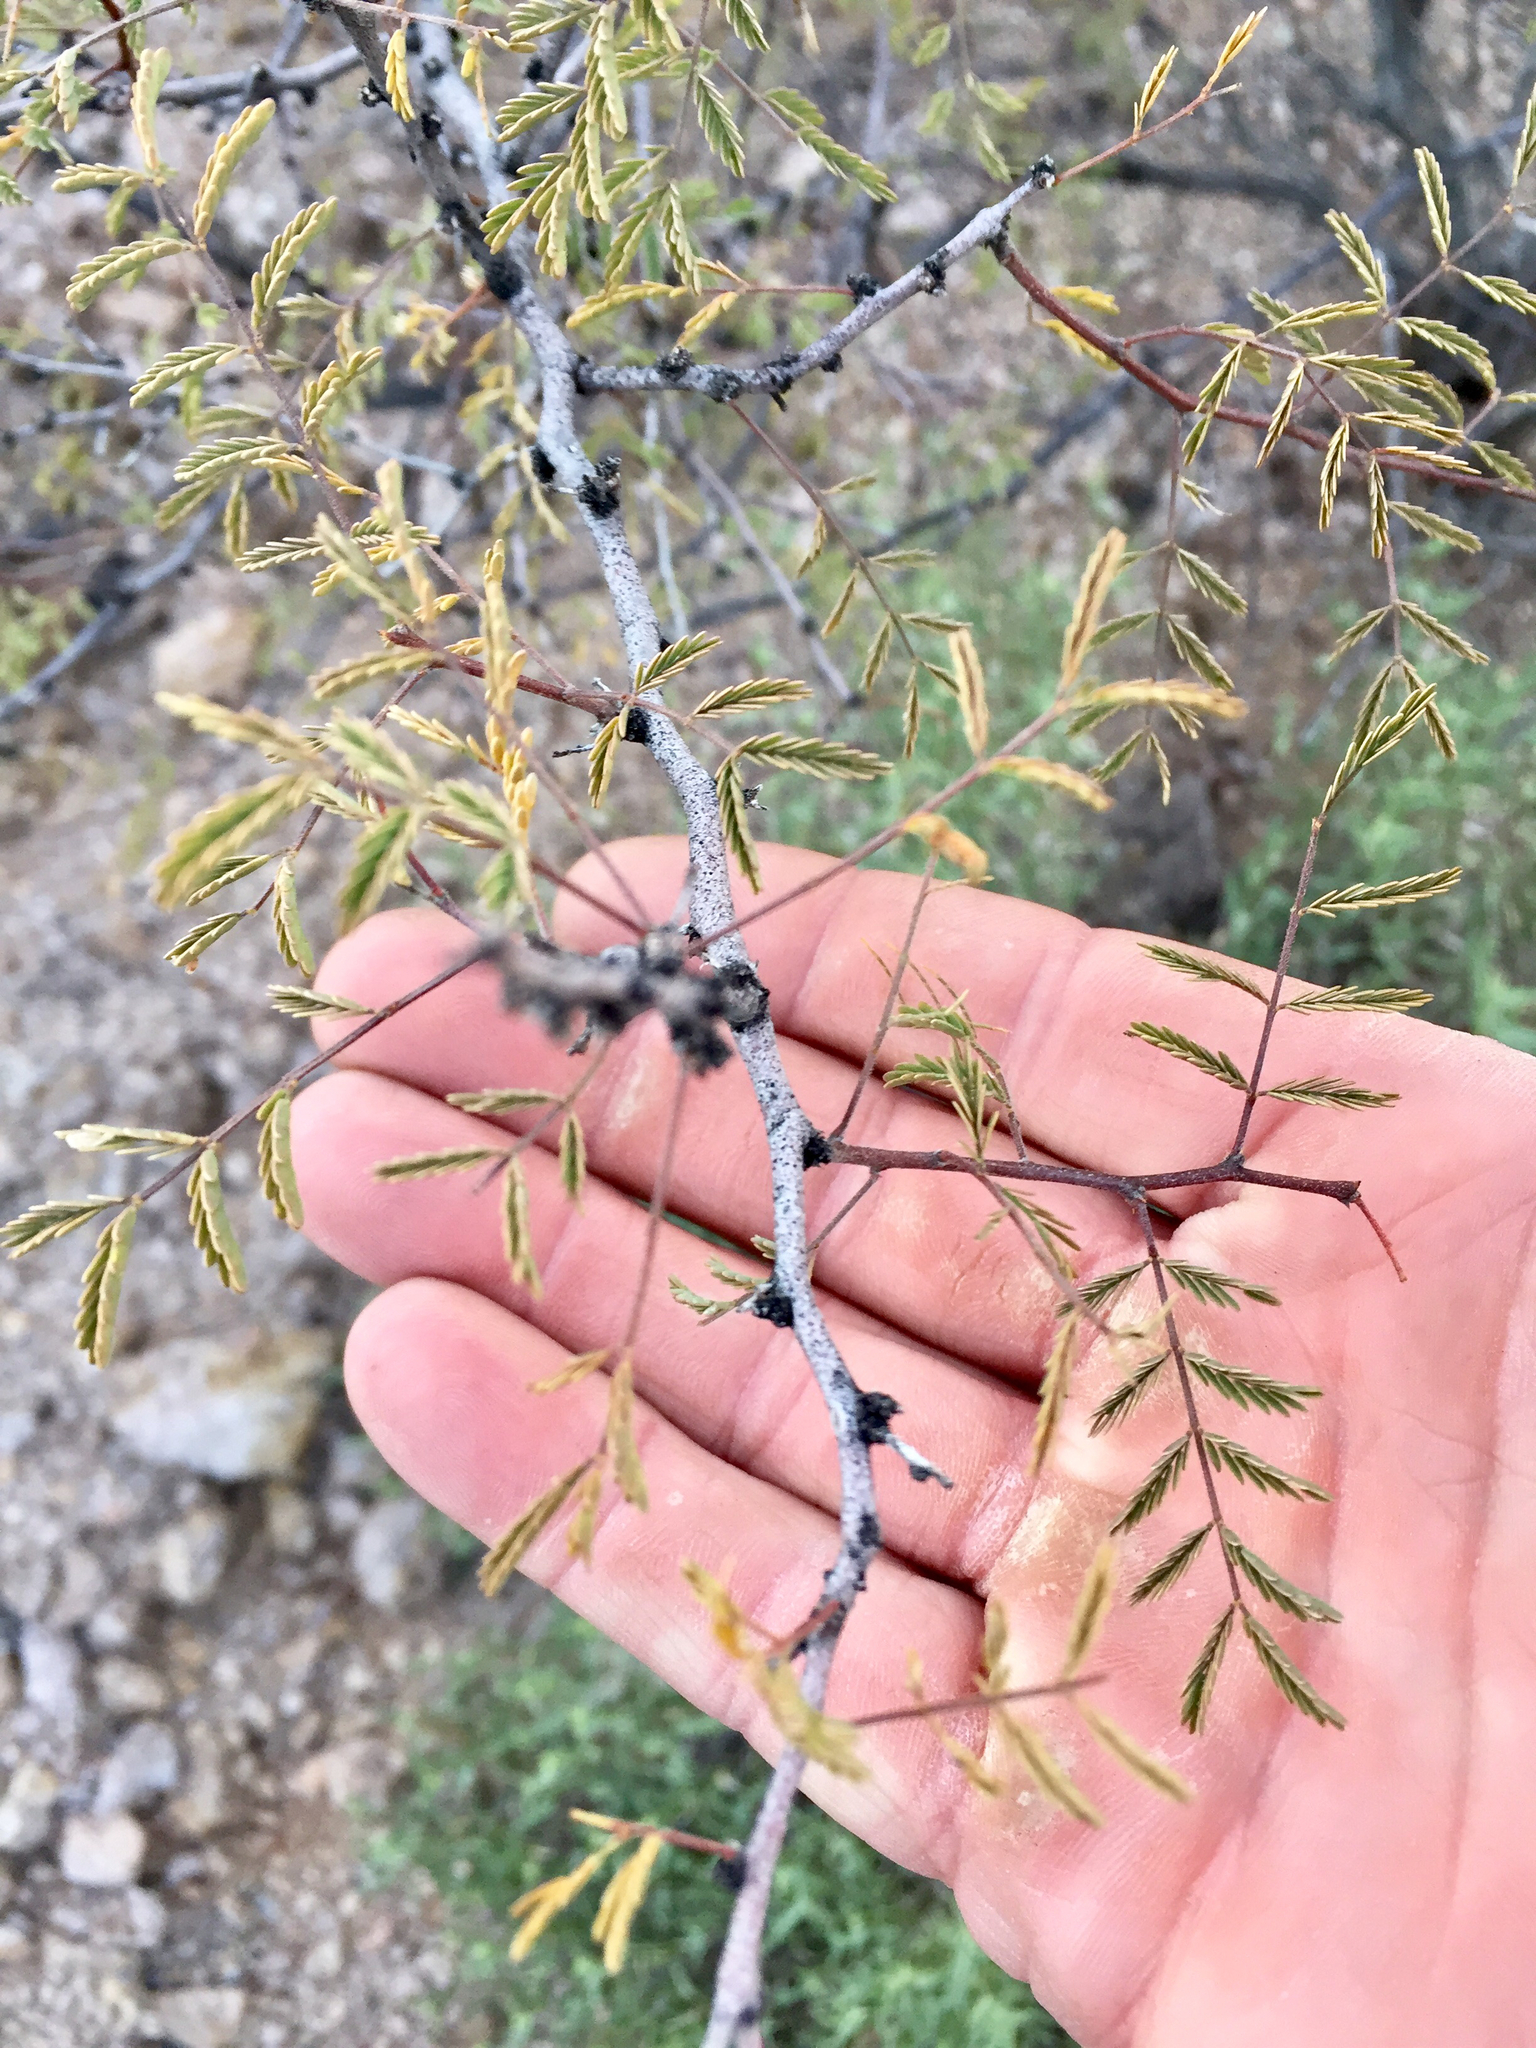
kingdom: Plantae
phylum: Tracheophyta
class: Magnoliopsida
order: Fabales
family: Fabaceae
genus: Vachellia
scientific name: Vachellia constricta
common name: Mescat acacia
